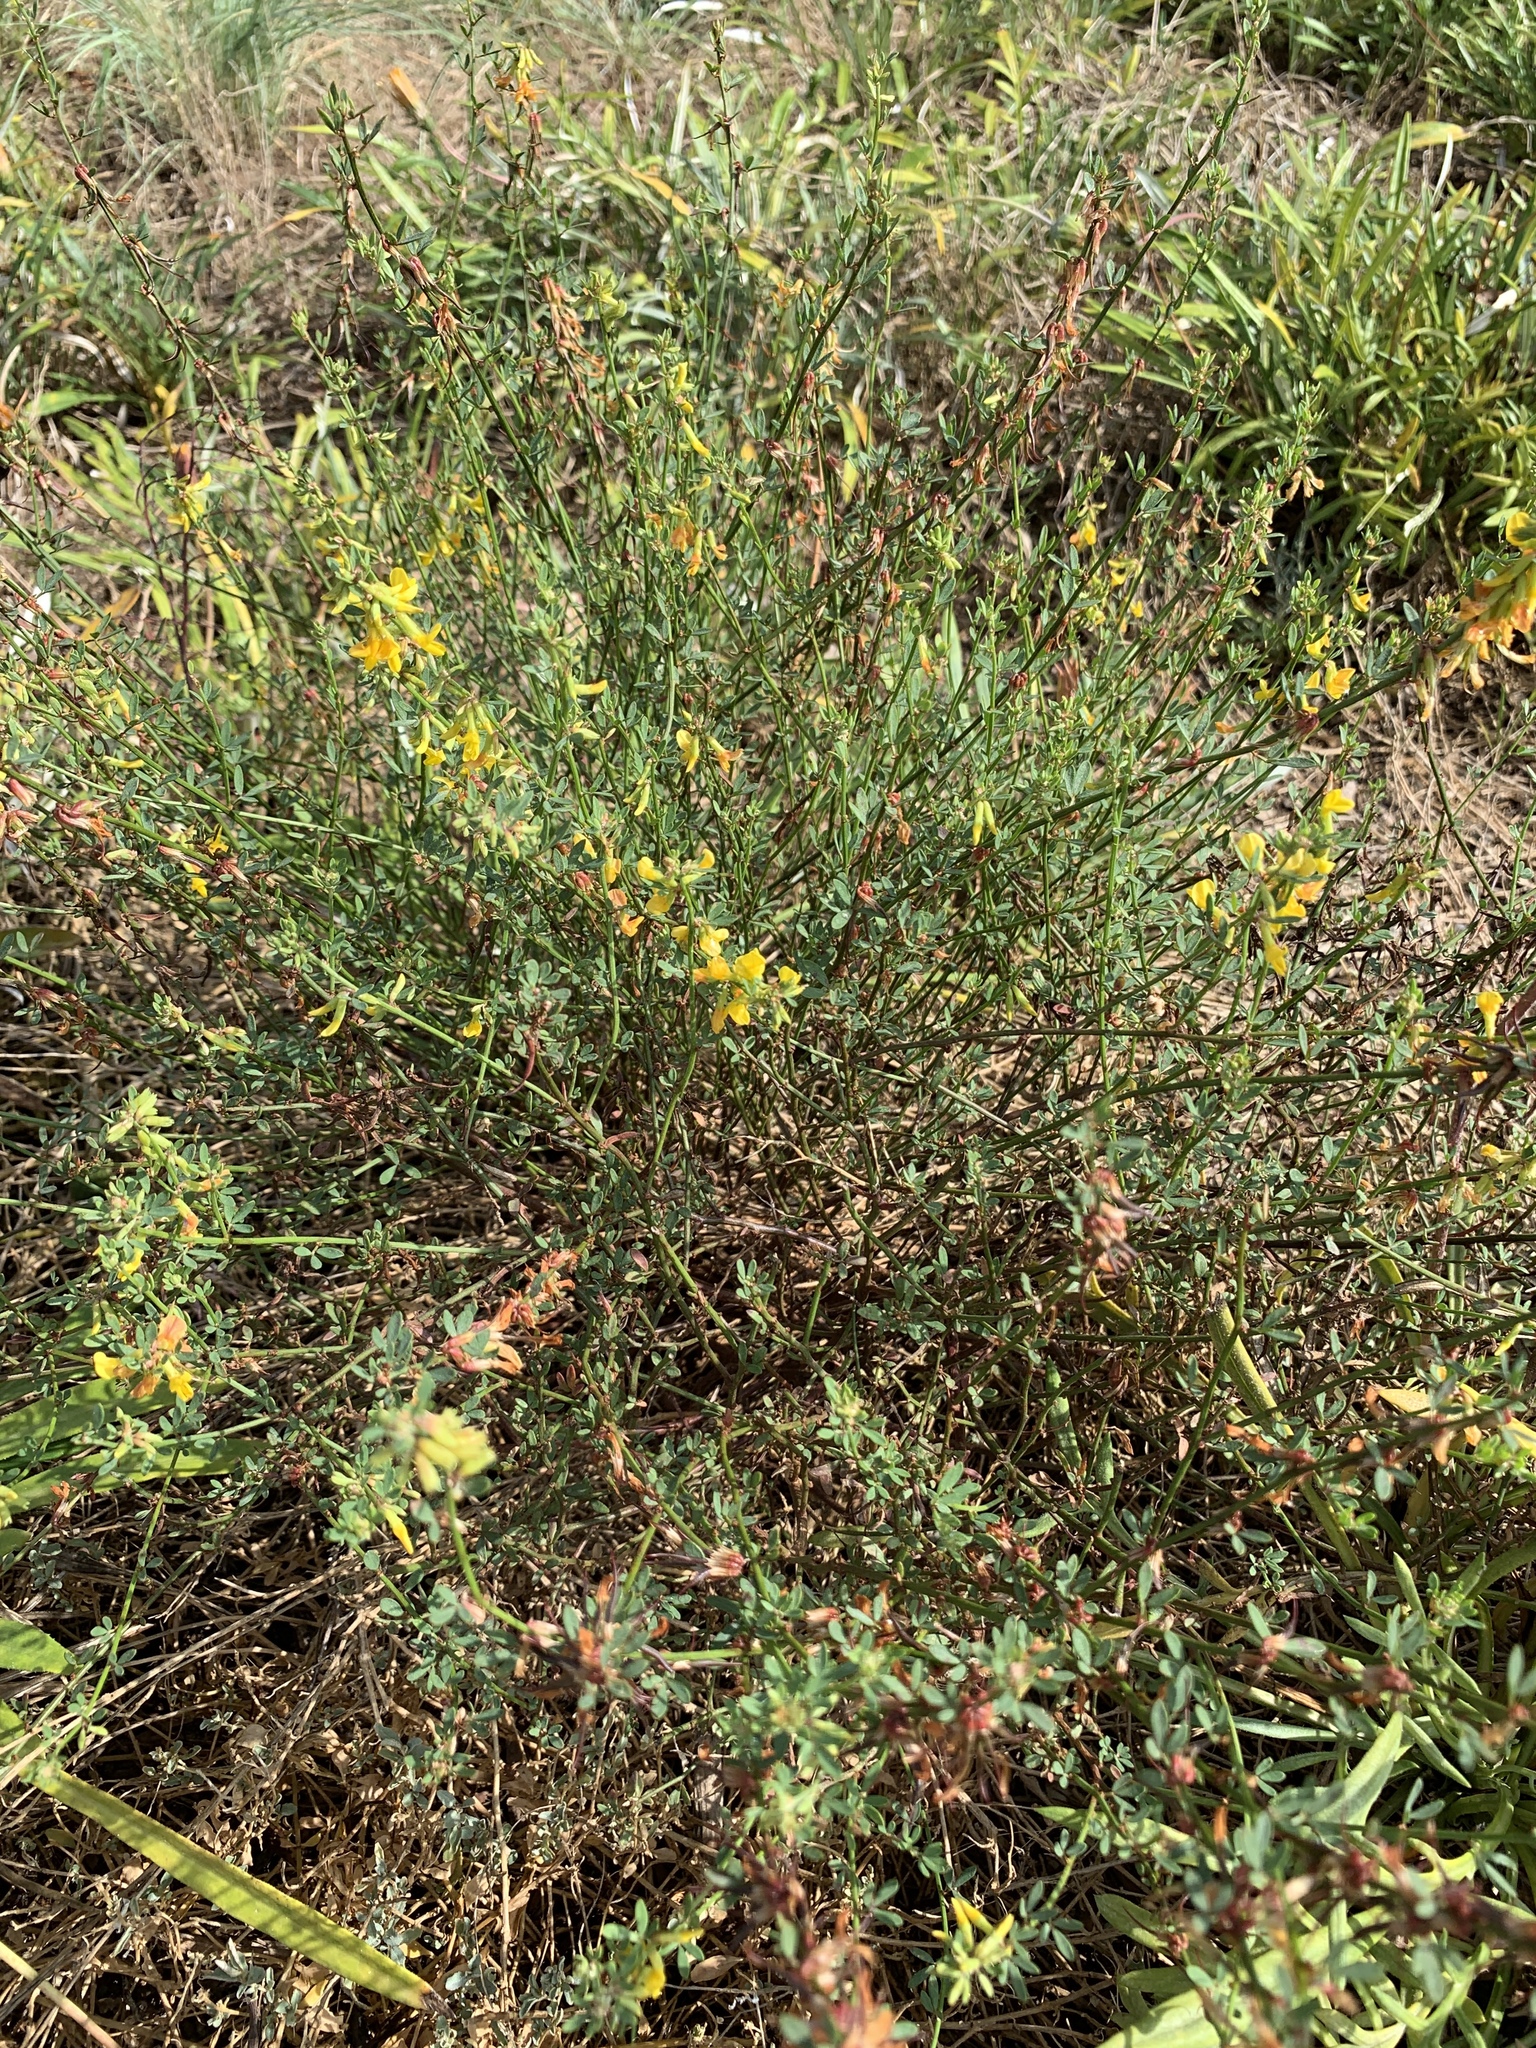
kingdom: Plantae
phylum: Tracheophyta
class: Magnoliopsida
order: Fabales
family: Fabaceae
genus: Acmispon
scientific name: Acmispon glaber
